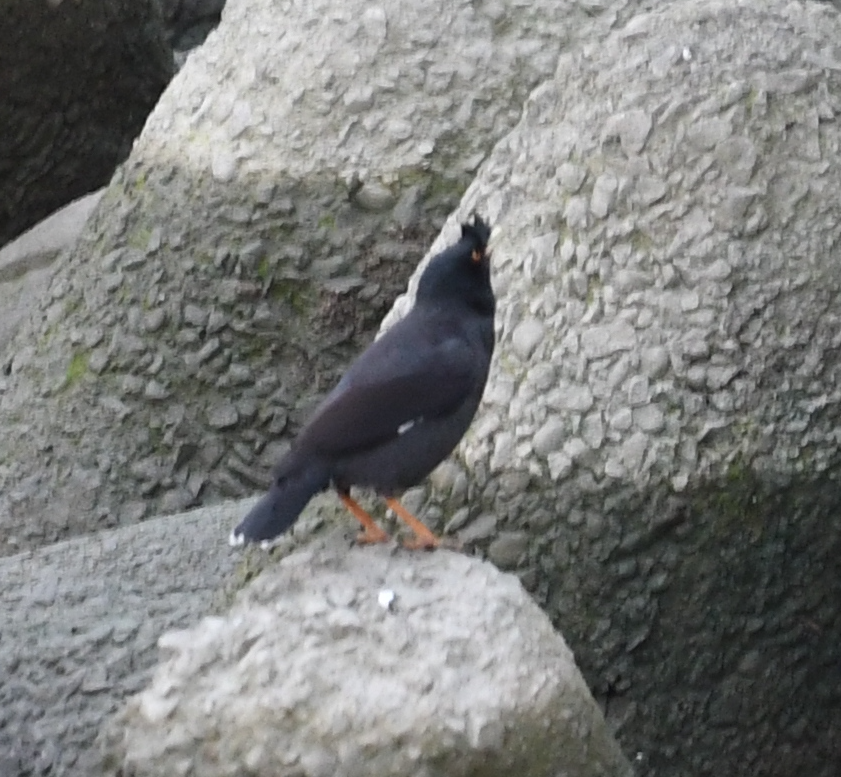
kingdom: Animalia
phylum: Chordata
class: Aves
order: Passeriformes
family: Sturnidae
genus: Acridotheres
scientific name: Acridotheres cristatellus
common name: Crested myna
